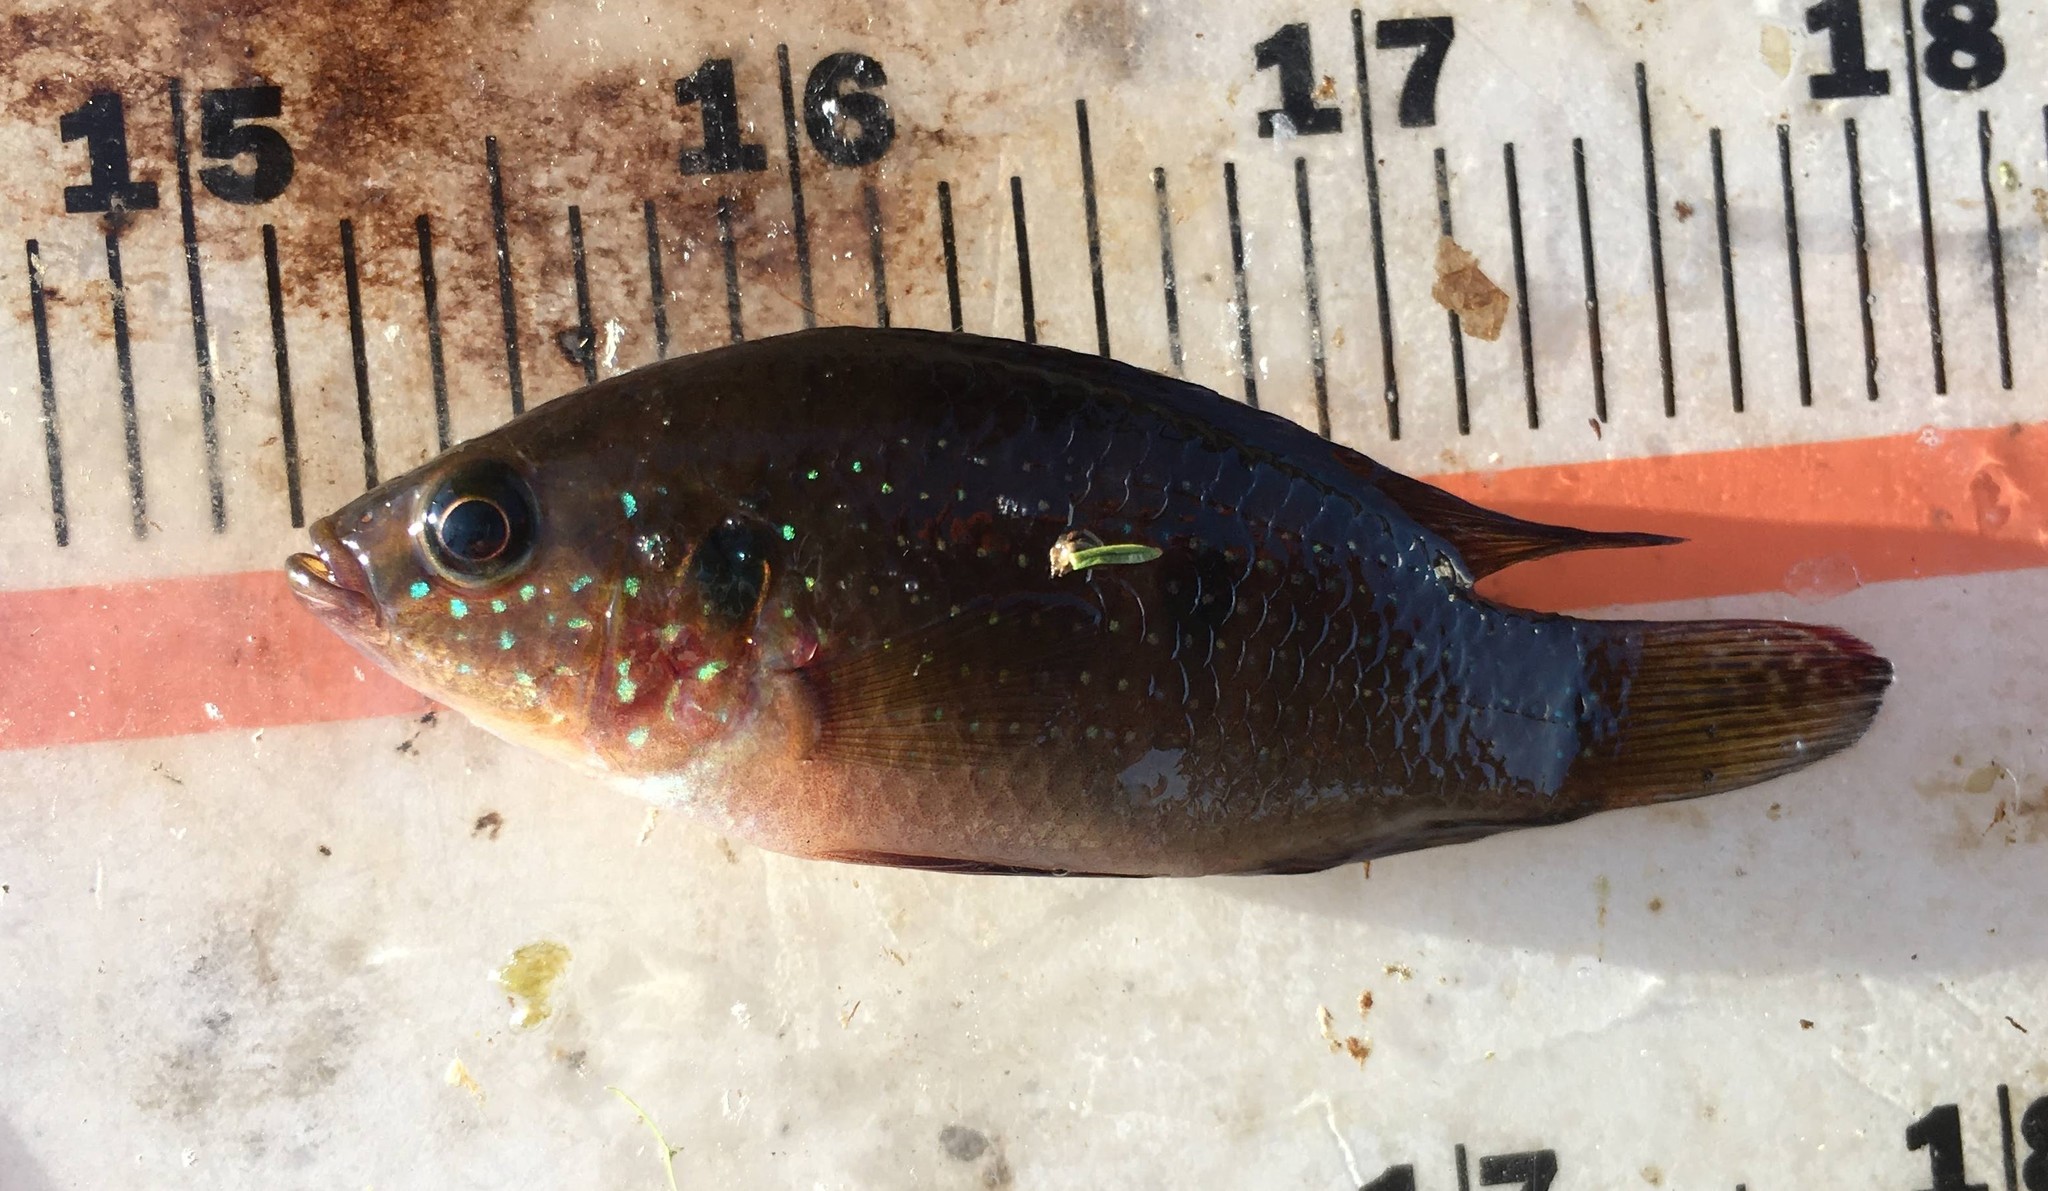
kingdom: Animalia
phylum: Chordata
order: Perciformes
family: Cichlidae
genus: Rubricatochromis
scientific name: Rubricatochromis
